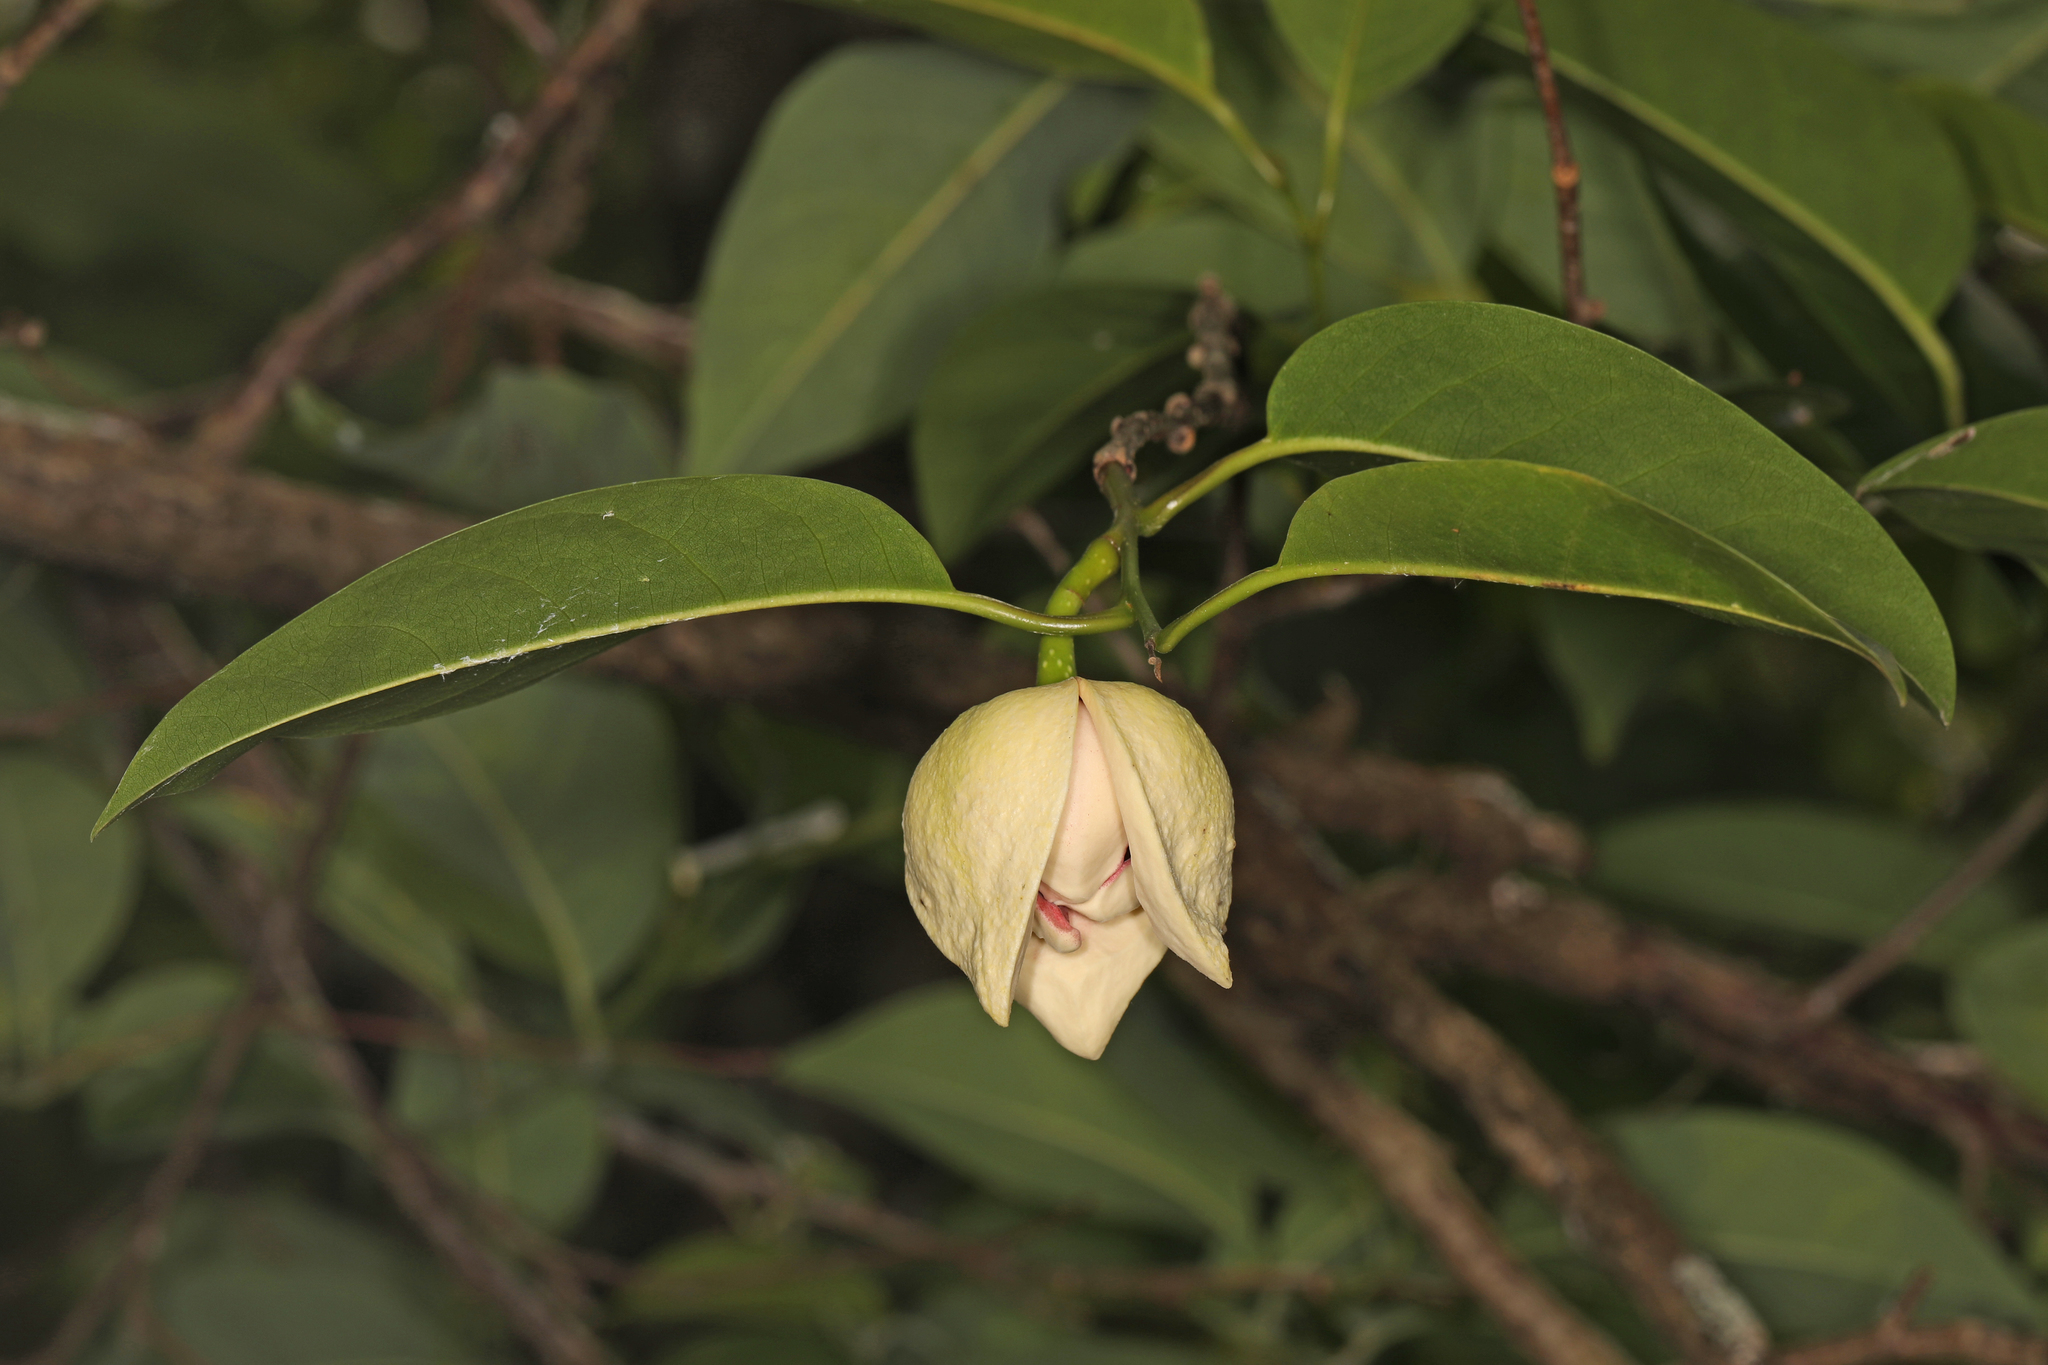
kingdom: Plantae
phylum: Tracheophyta
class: Magnoliopsida
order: Magnoliales
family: Annonaceae
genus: Annona
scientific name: Annona glabra
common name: Monkey apple
